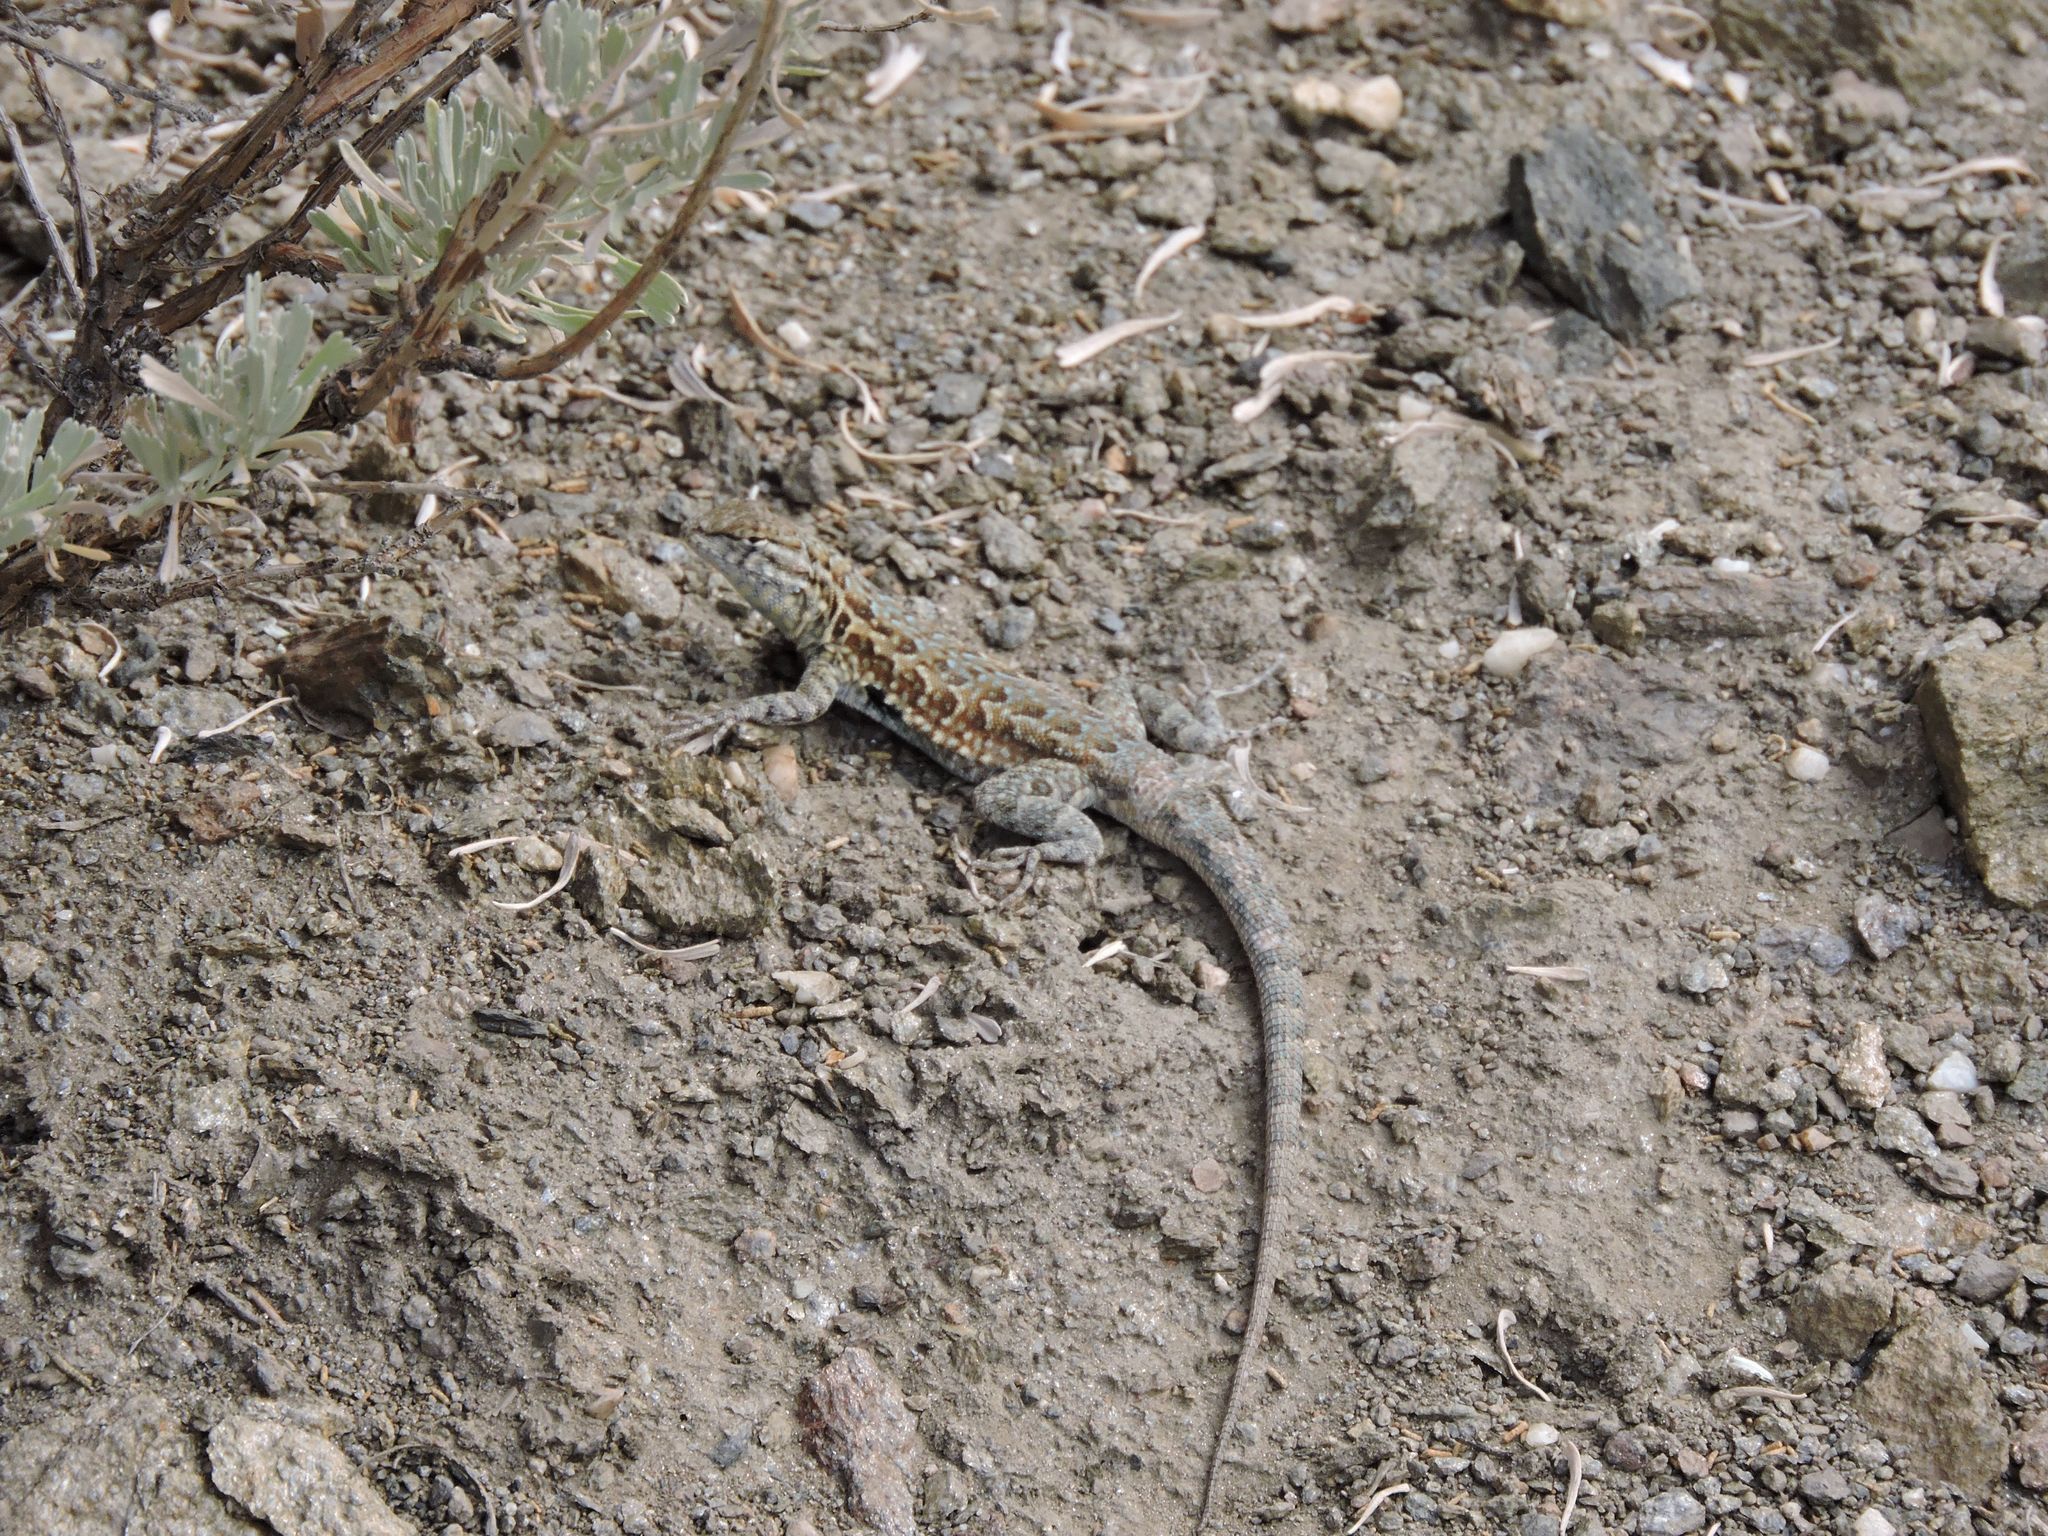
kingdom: Animalia
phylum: Chordata
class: Squamata
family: Phrynosomatidae
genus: Uta
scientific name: Uta stansburiana
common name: Side-blotched lizard
